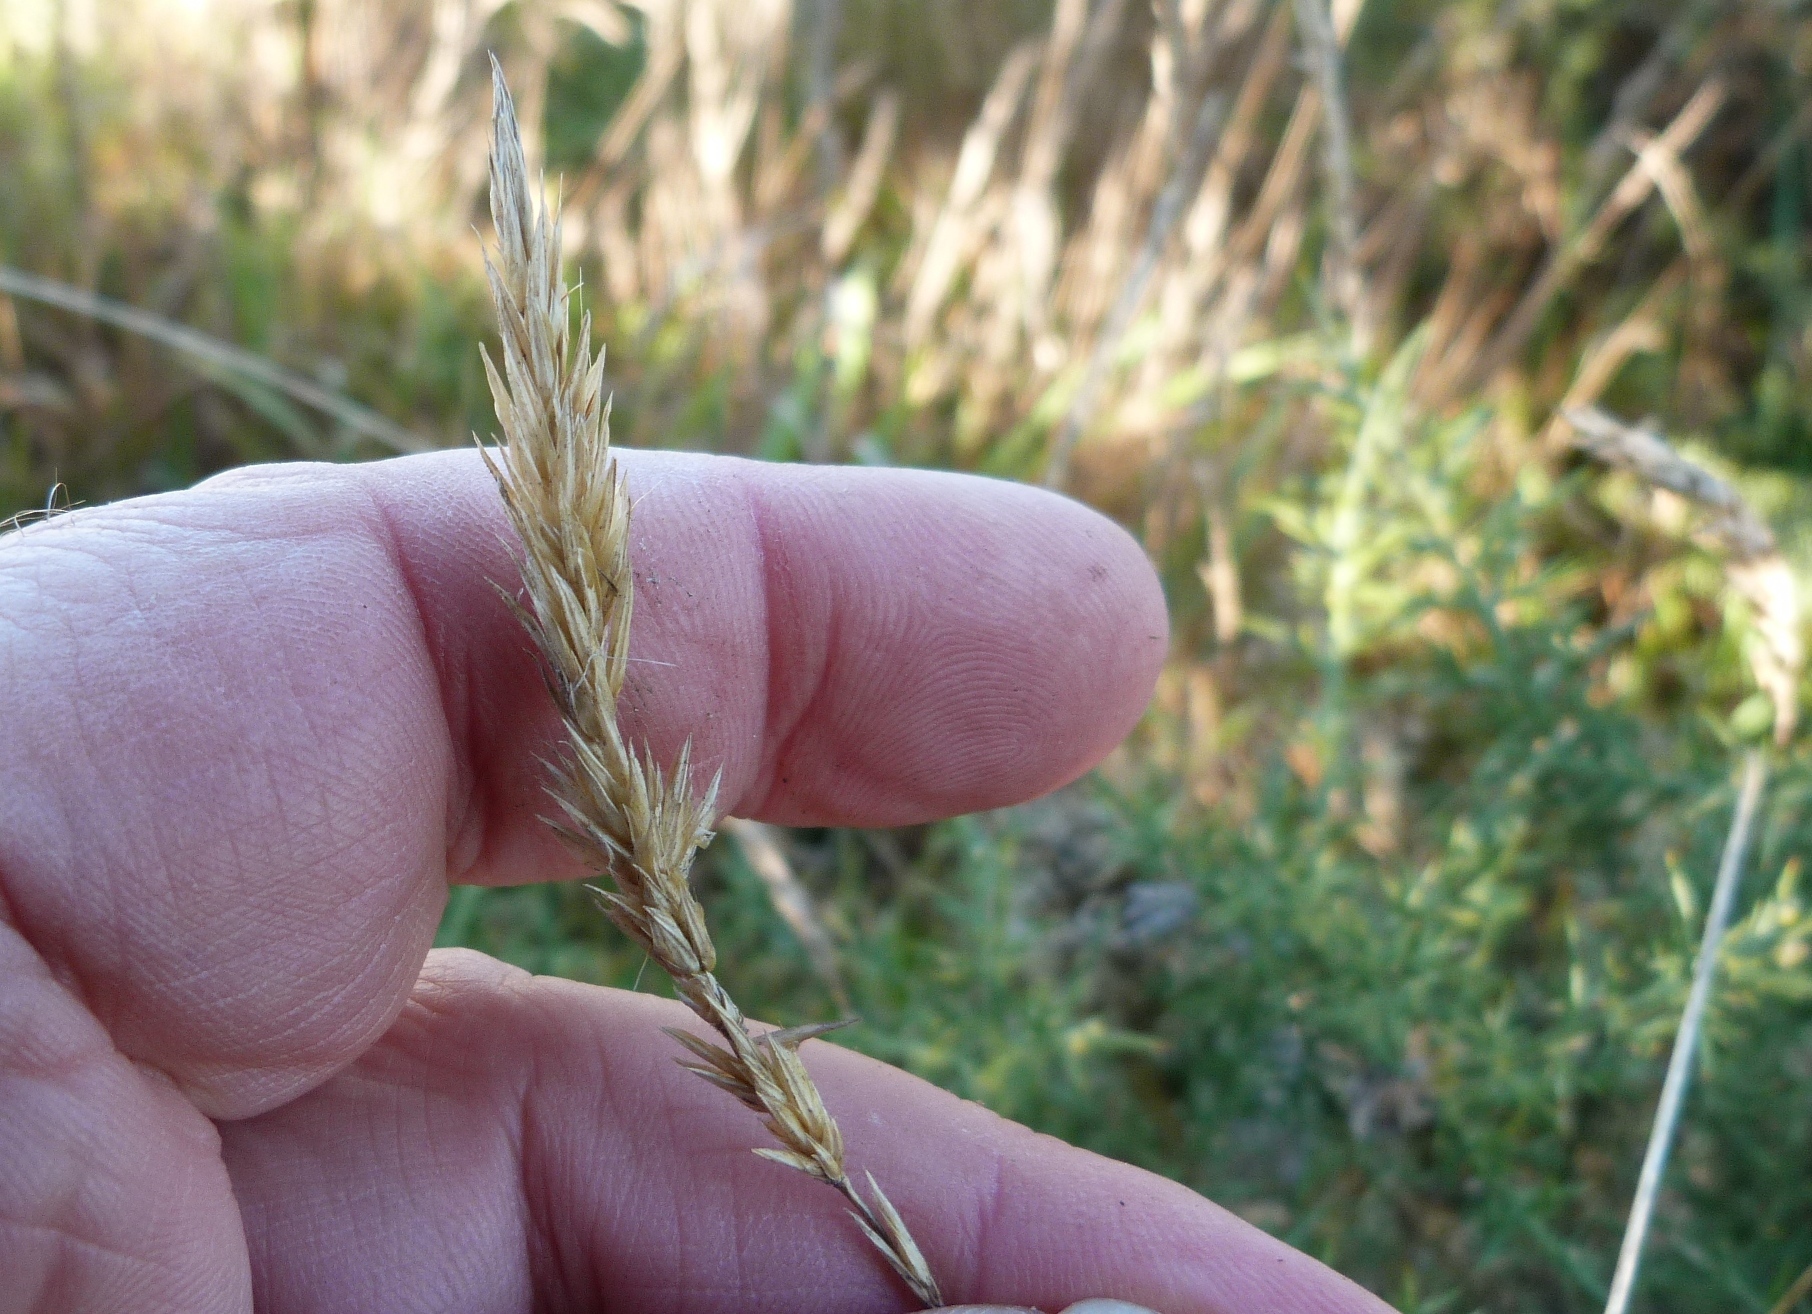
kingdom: Plantae
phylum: Tracheophyta
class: Liliopsida
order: Poales
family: Poaceae
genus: Anthoxanthum
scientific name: Anthoxanthum aristatum
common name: Annual vernal-grass
